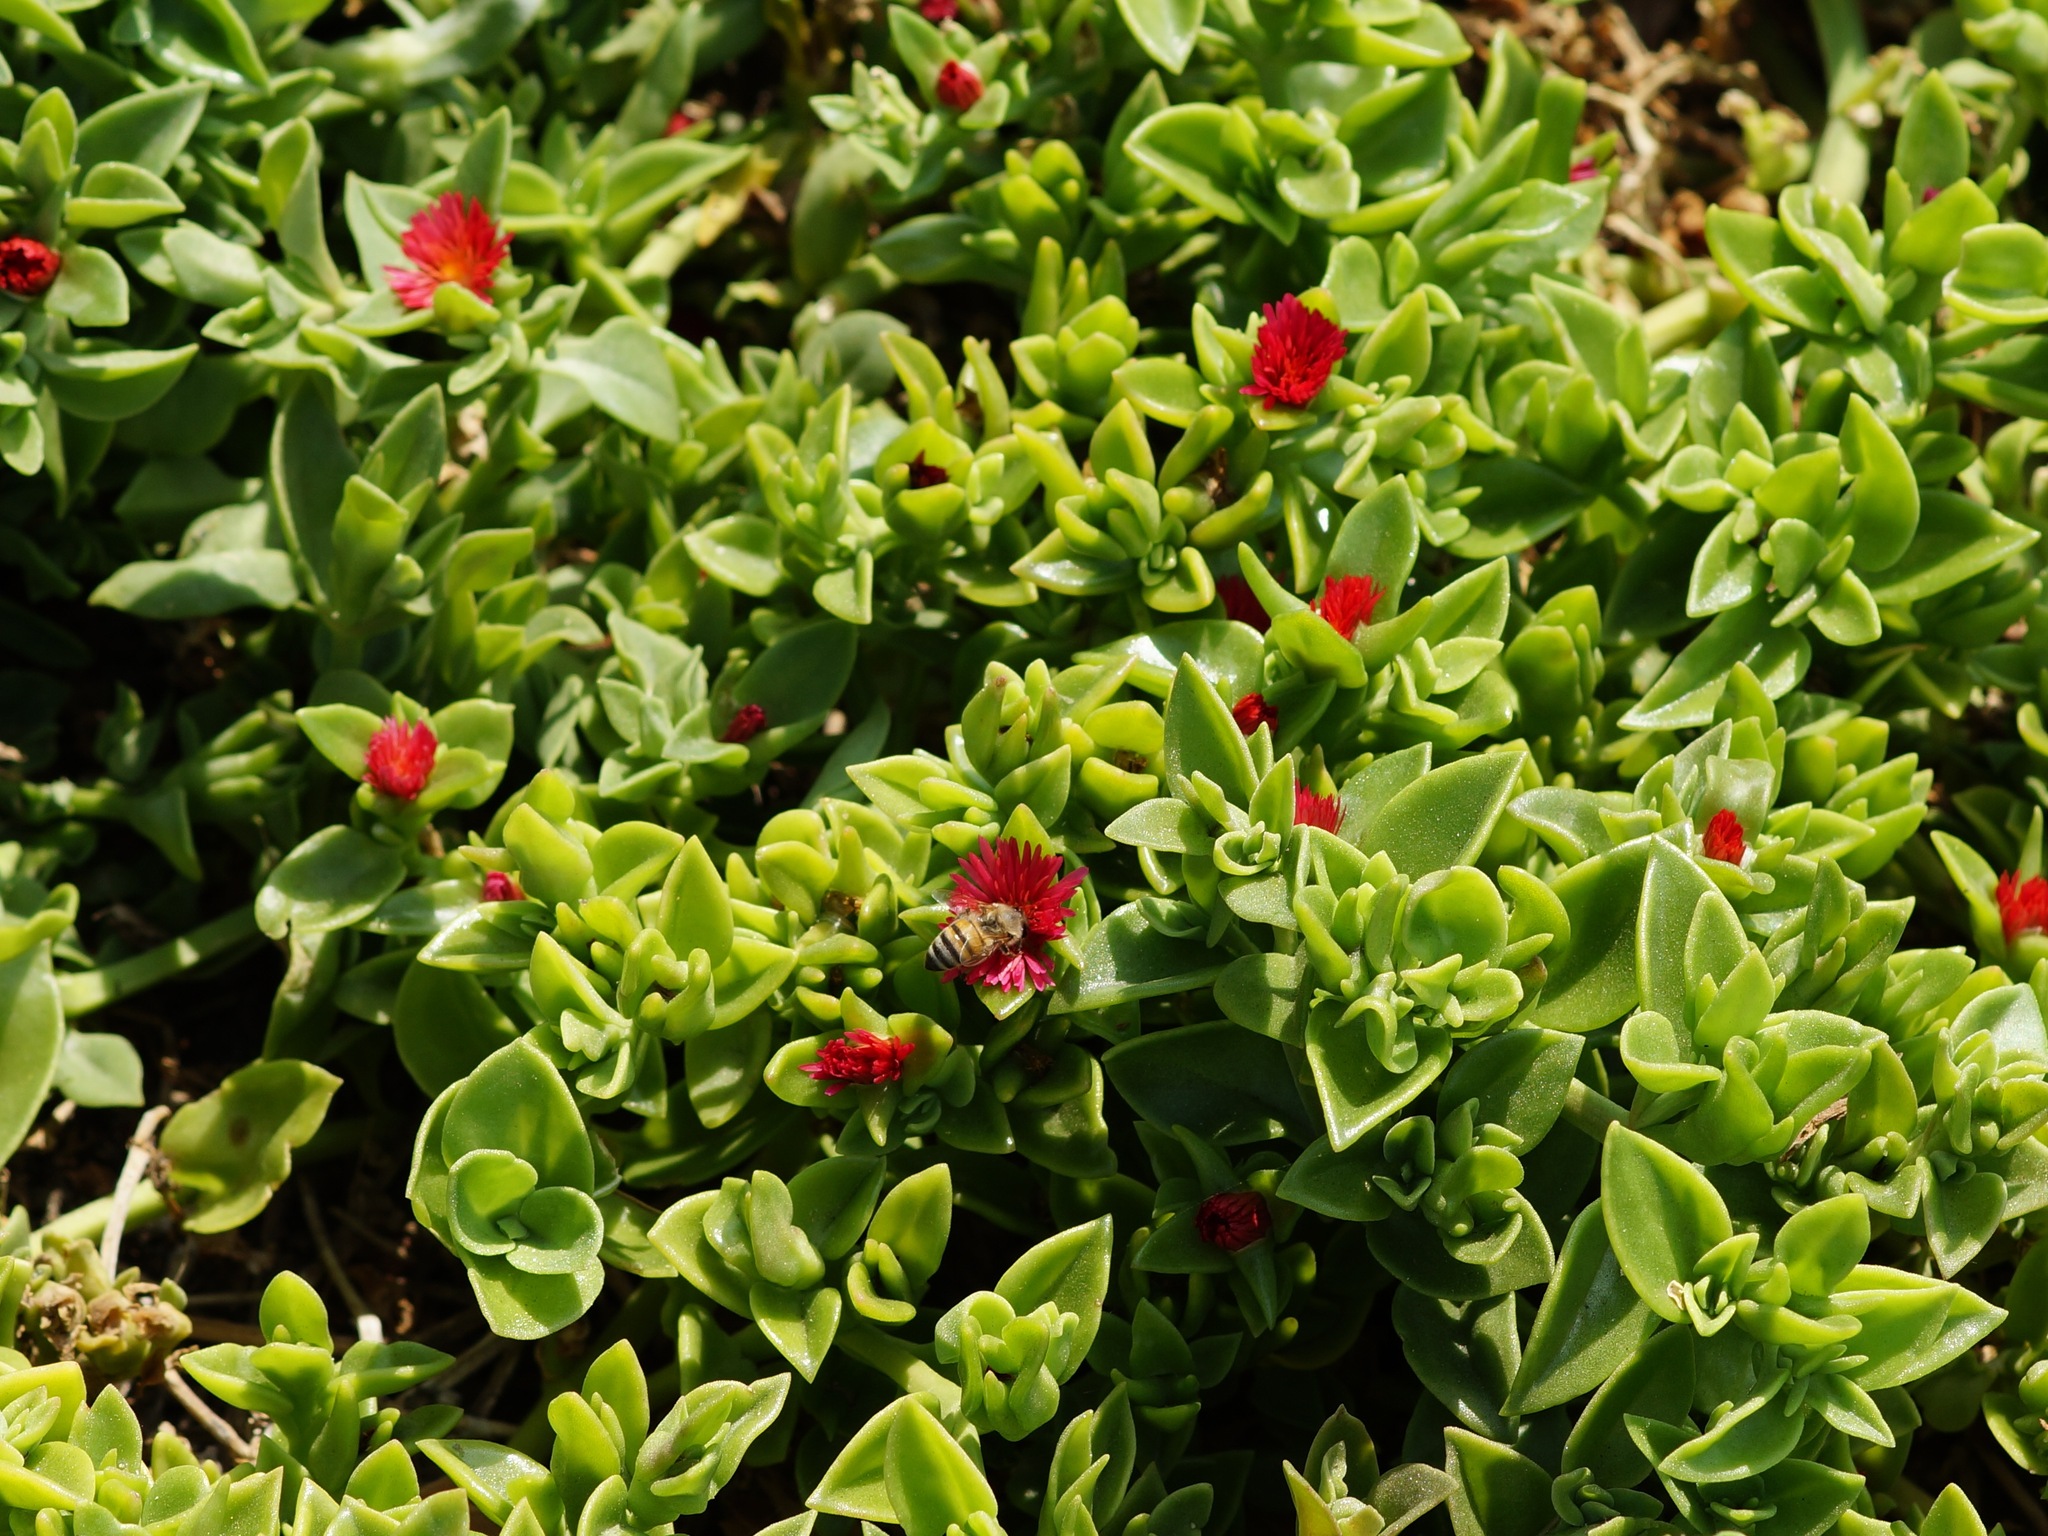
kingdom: Animalia
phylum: Arthropoda
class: Insecta
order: Hymenoptera
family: Apidae
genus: Apis
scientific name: Apis mellifera
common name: Honey bee
